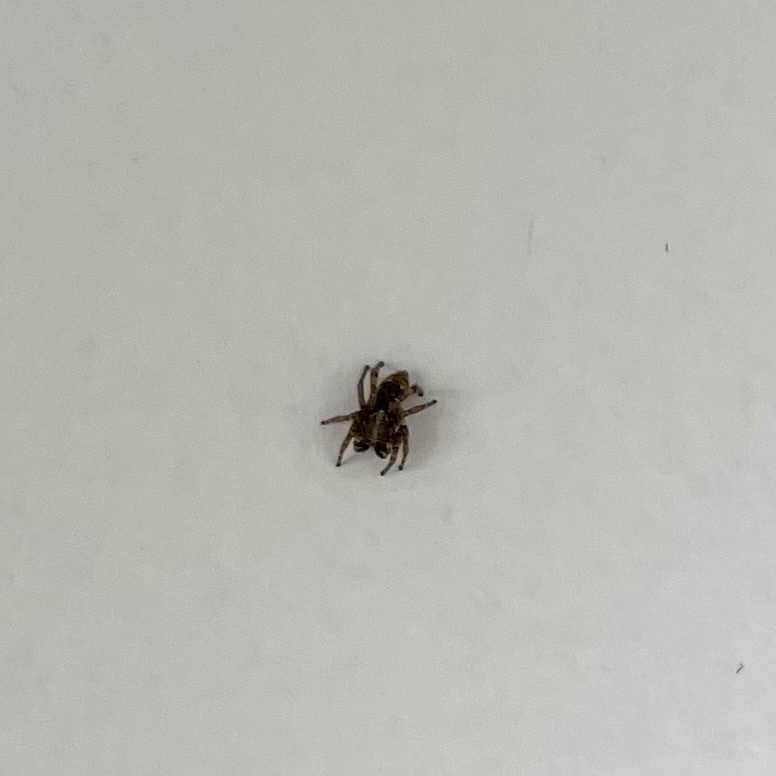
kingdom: Animalia
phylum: Arthropoda
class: Arachnida
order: Araneae
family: Salticidae
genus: Attulus
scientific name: Attulus fasciger
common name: Asiatic wall jumping spider
